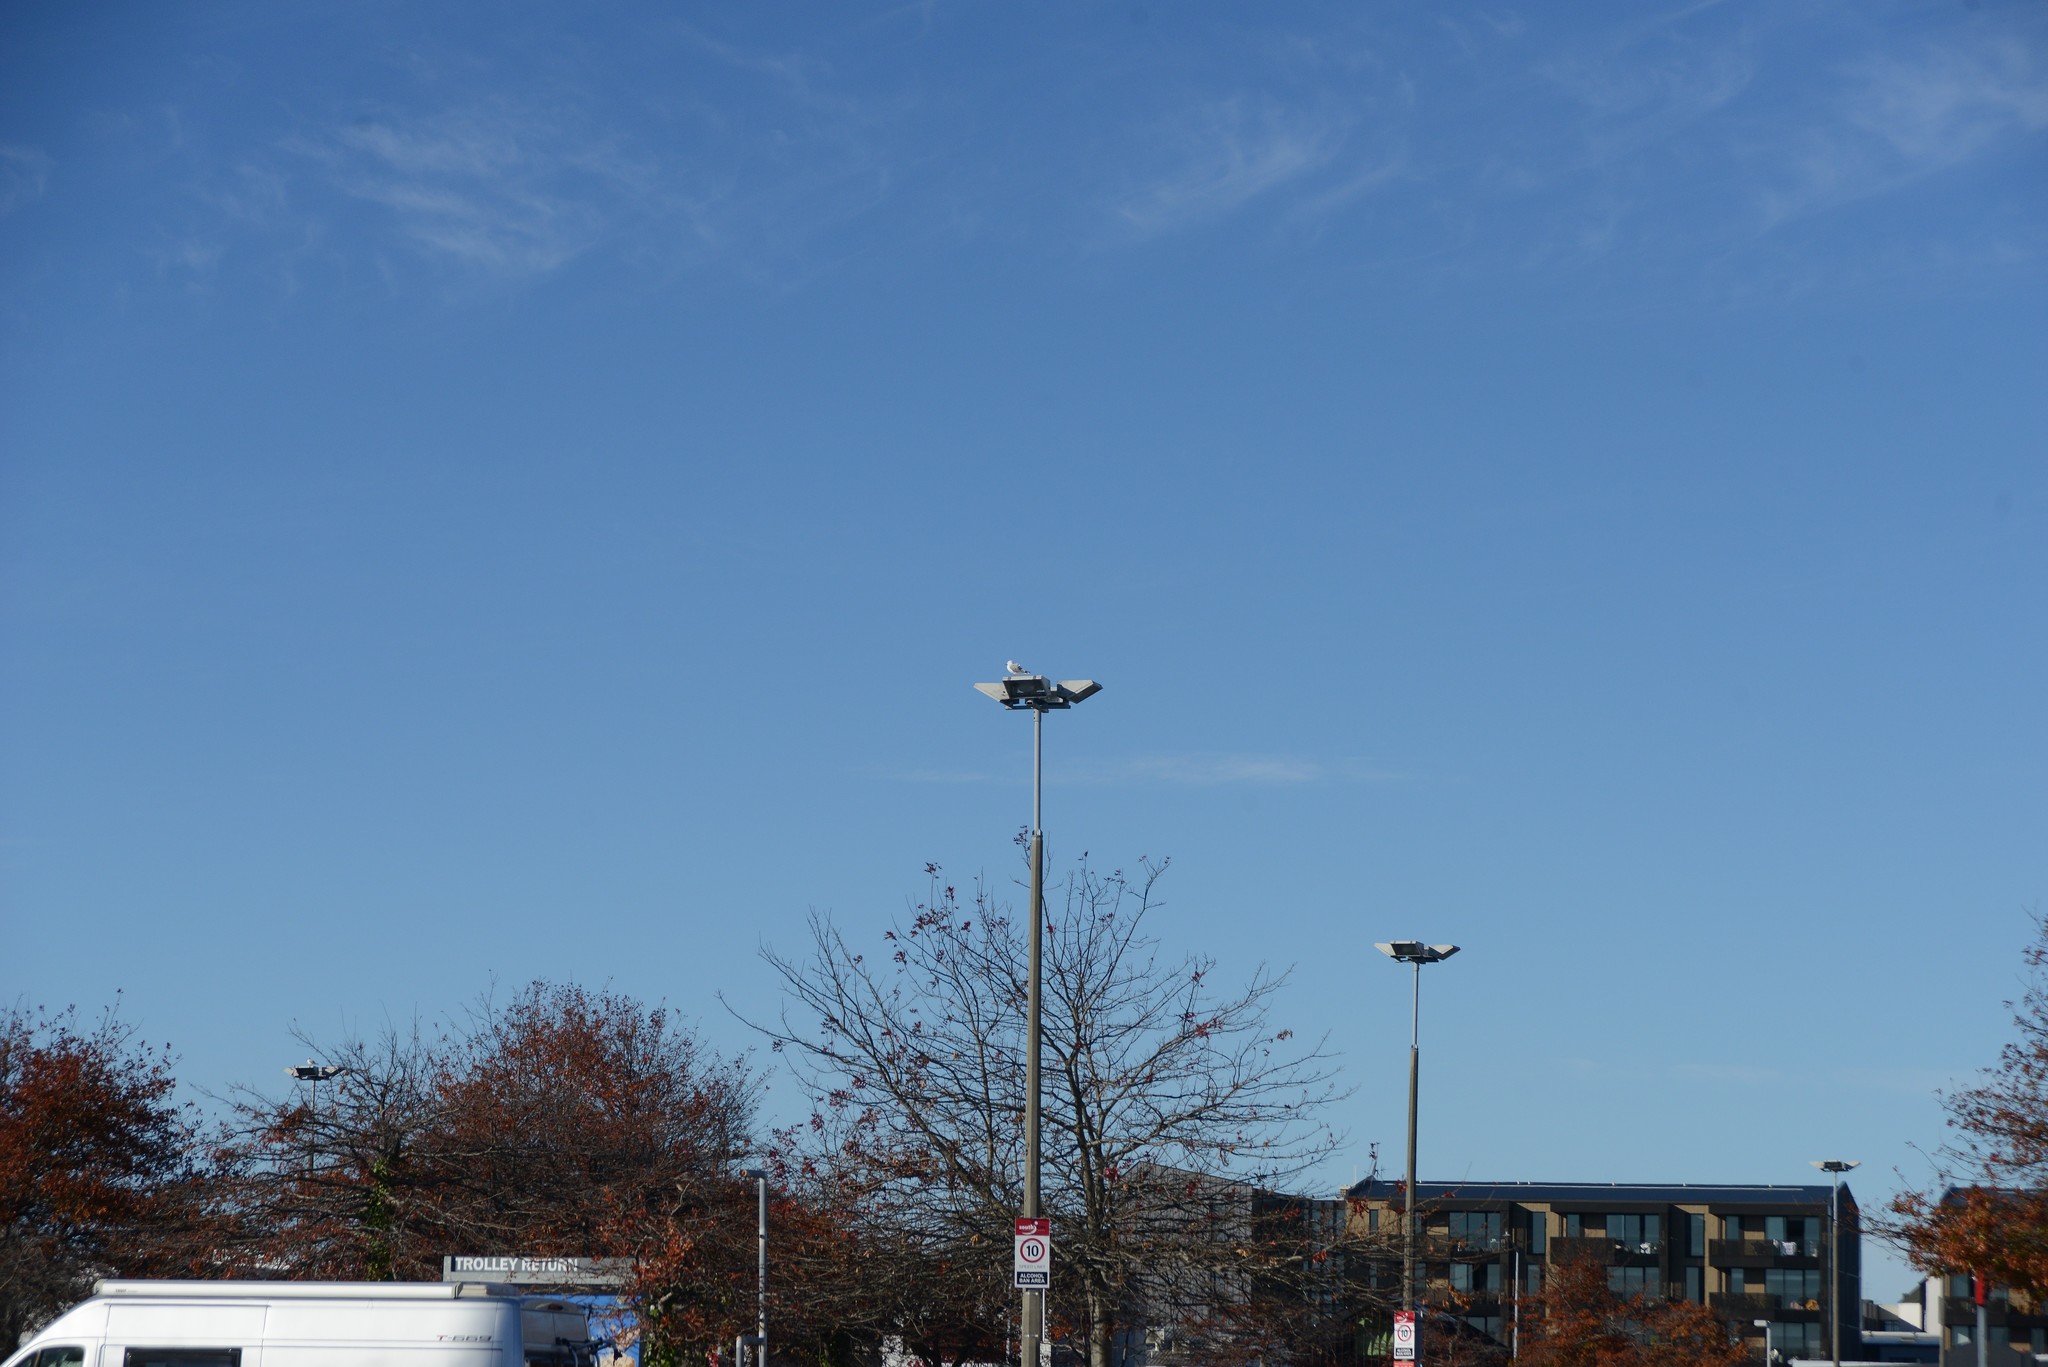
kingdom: Animalia
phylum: Chordata
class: Aves
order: Charadriiformes
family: Laridae
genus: Chroicocephalus
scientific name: Chroicocephalus novaehollandiae
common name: Silver gull
